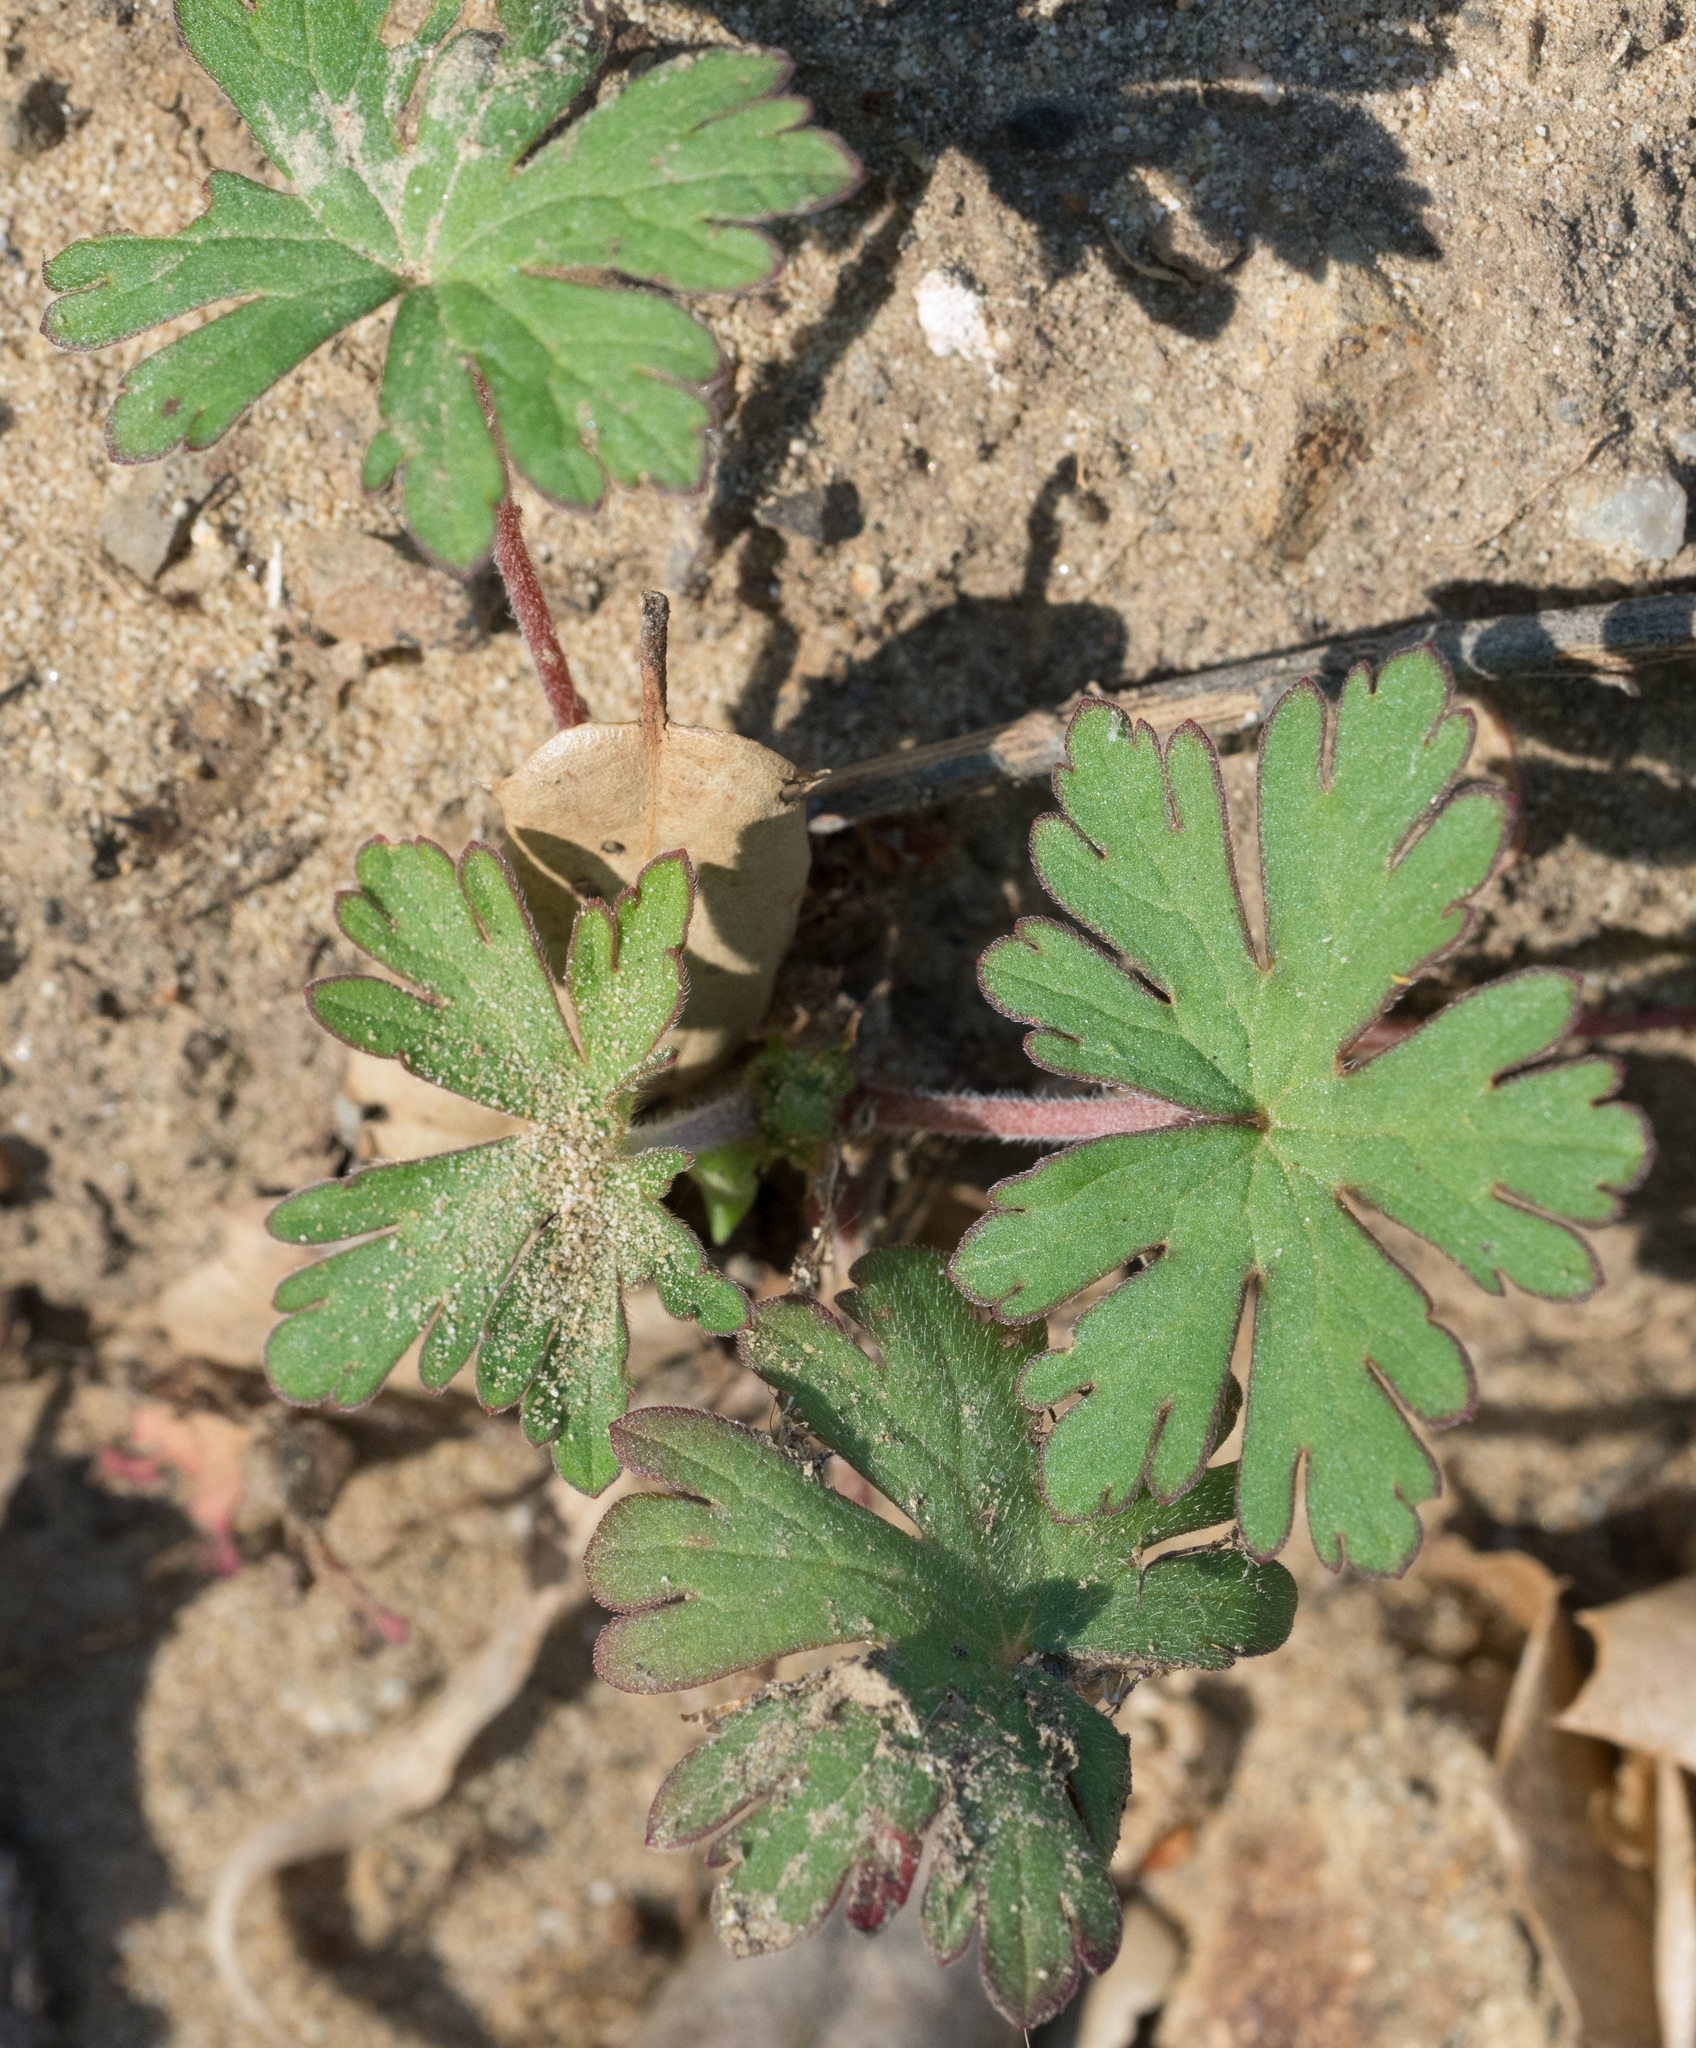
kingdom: Plantae
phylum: Tracheophyta
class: Magnoliopsida
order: Geraniales
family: Geraniaceae
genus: Geranium
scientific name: Geranium
